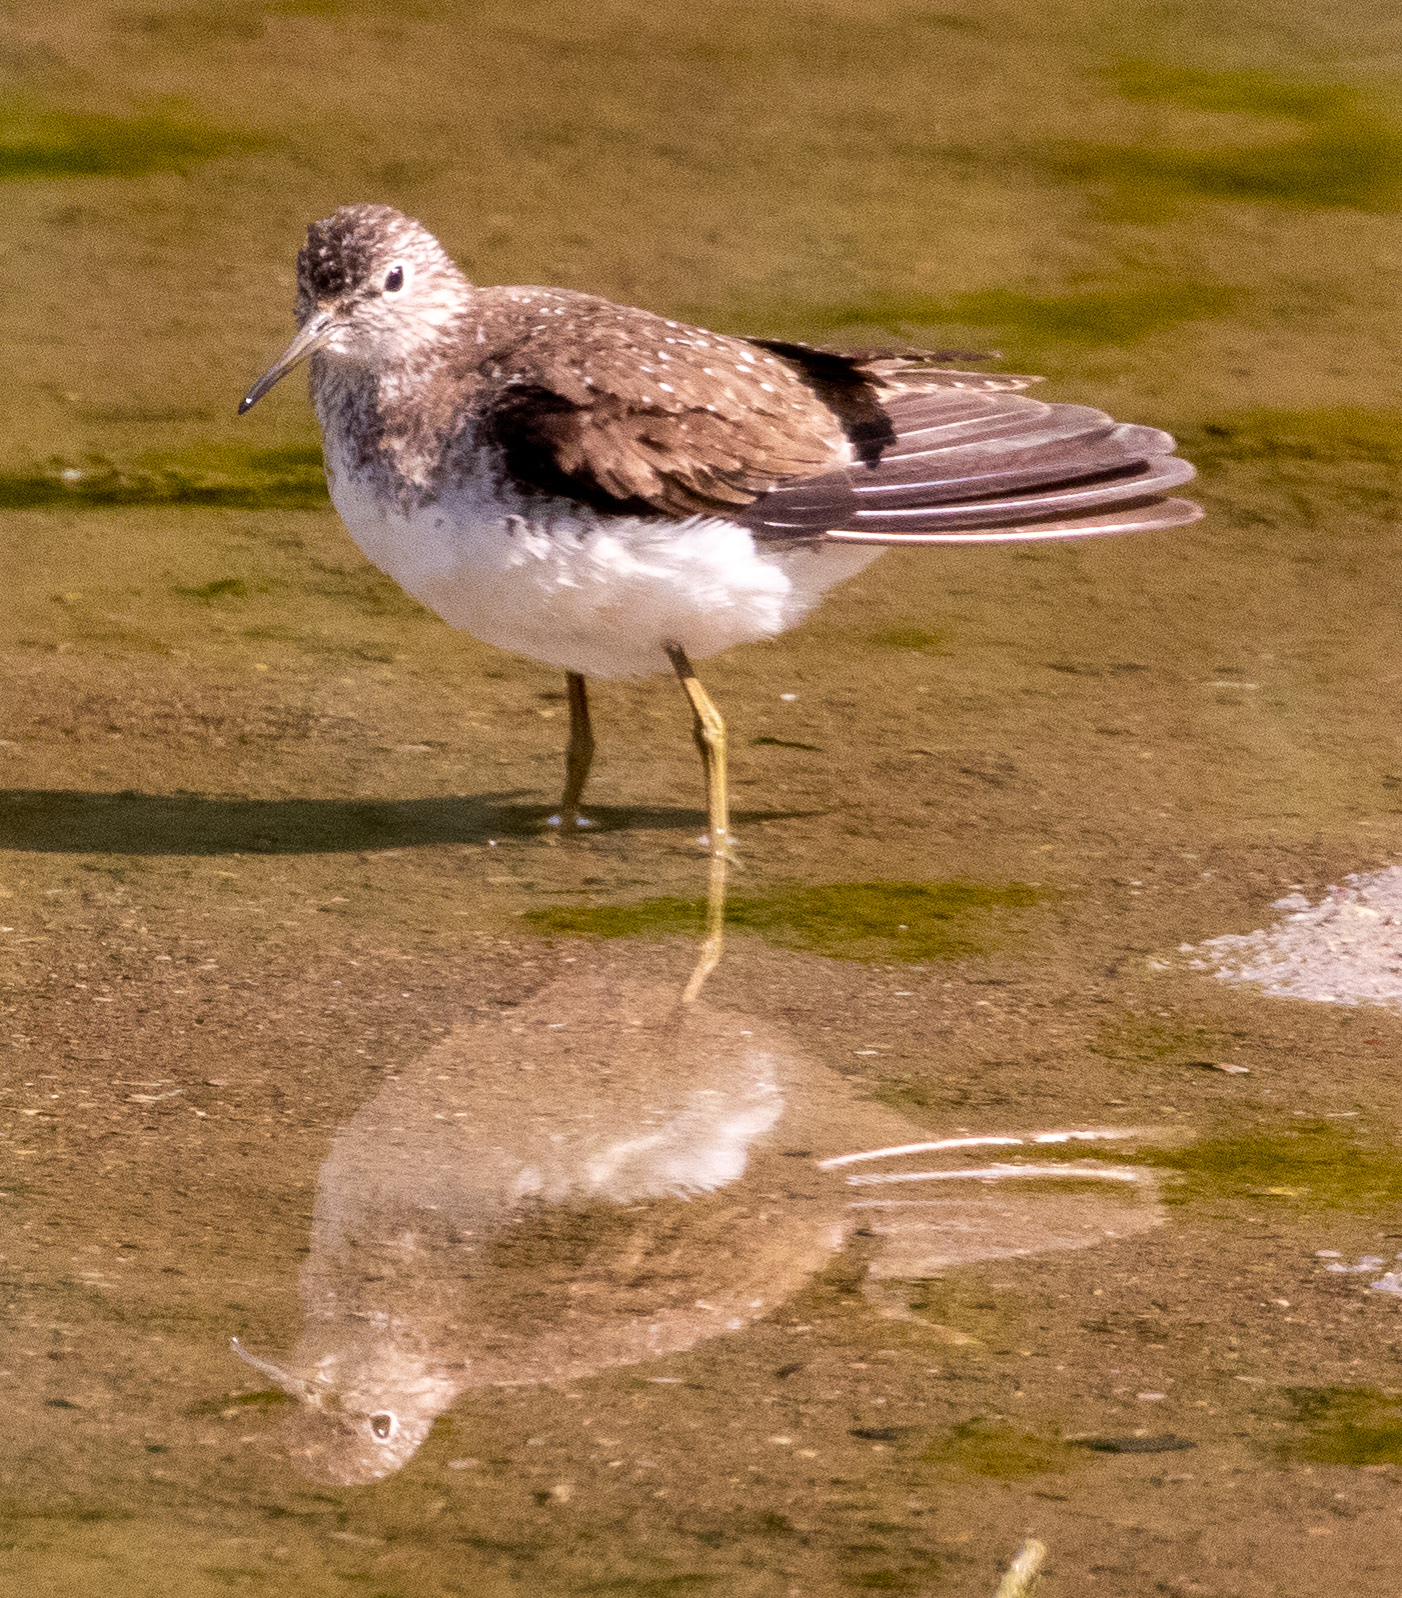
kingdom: Animalia
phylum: Chordata
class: Aves
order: Charadriiformes
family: Scolopacidae
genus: Tringa
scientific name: Tringa solitaria
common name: Solitary sandpiper
